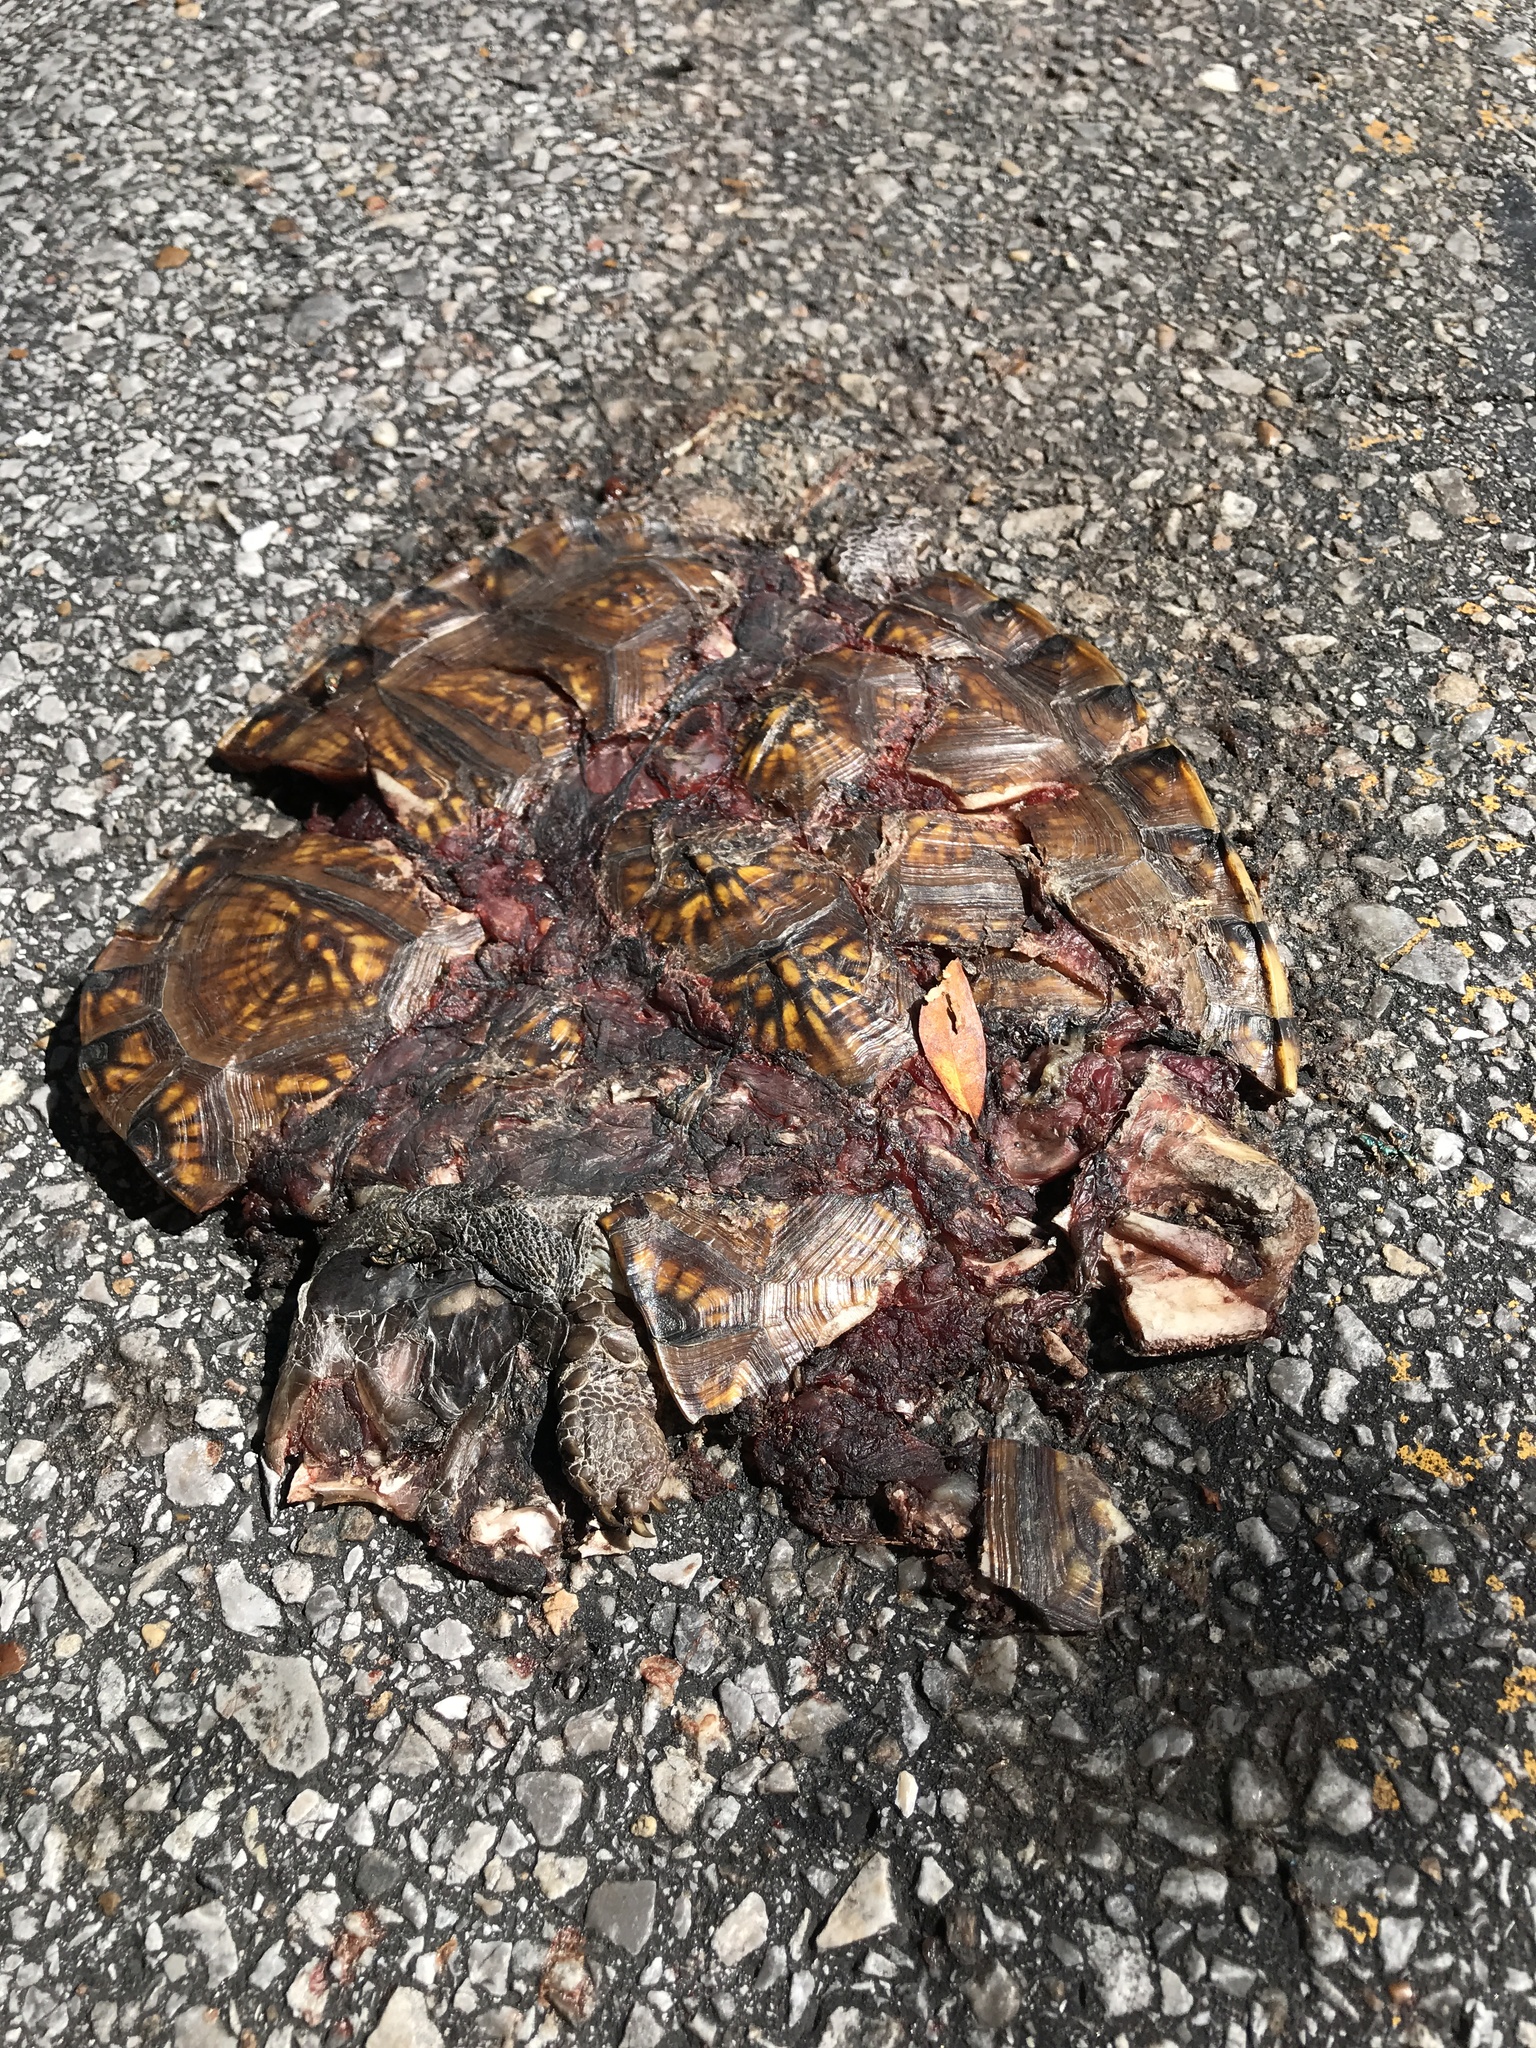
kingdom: Animalia
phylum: Chordata
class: Testudines
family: Emydidae
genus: Terrapene
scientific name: Terrapene carolina
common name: Common box turtle
